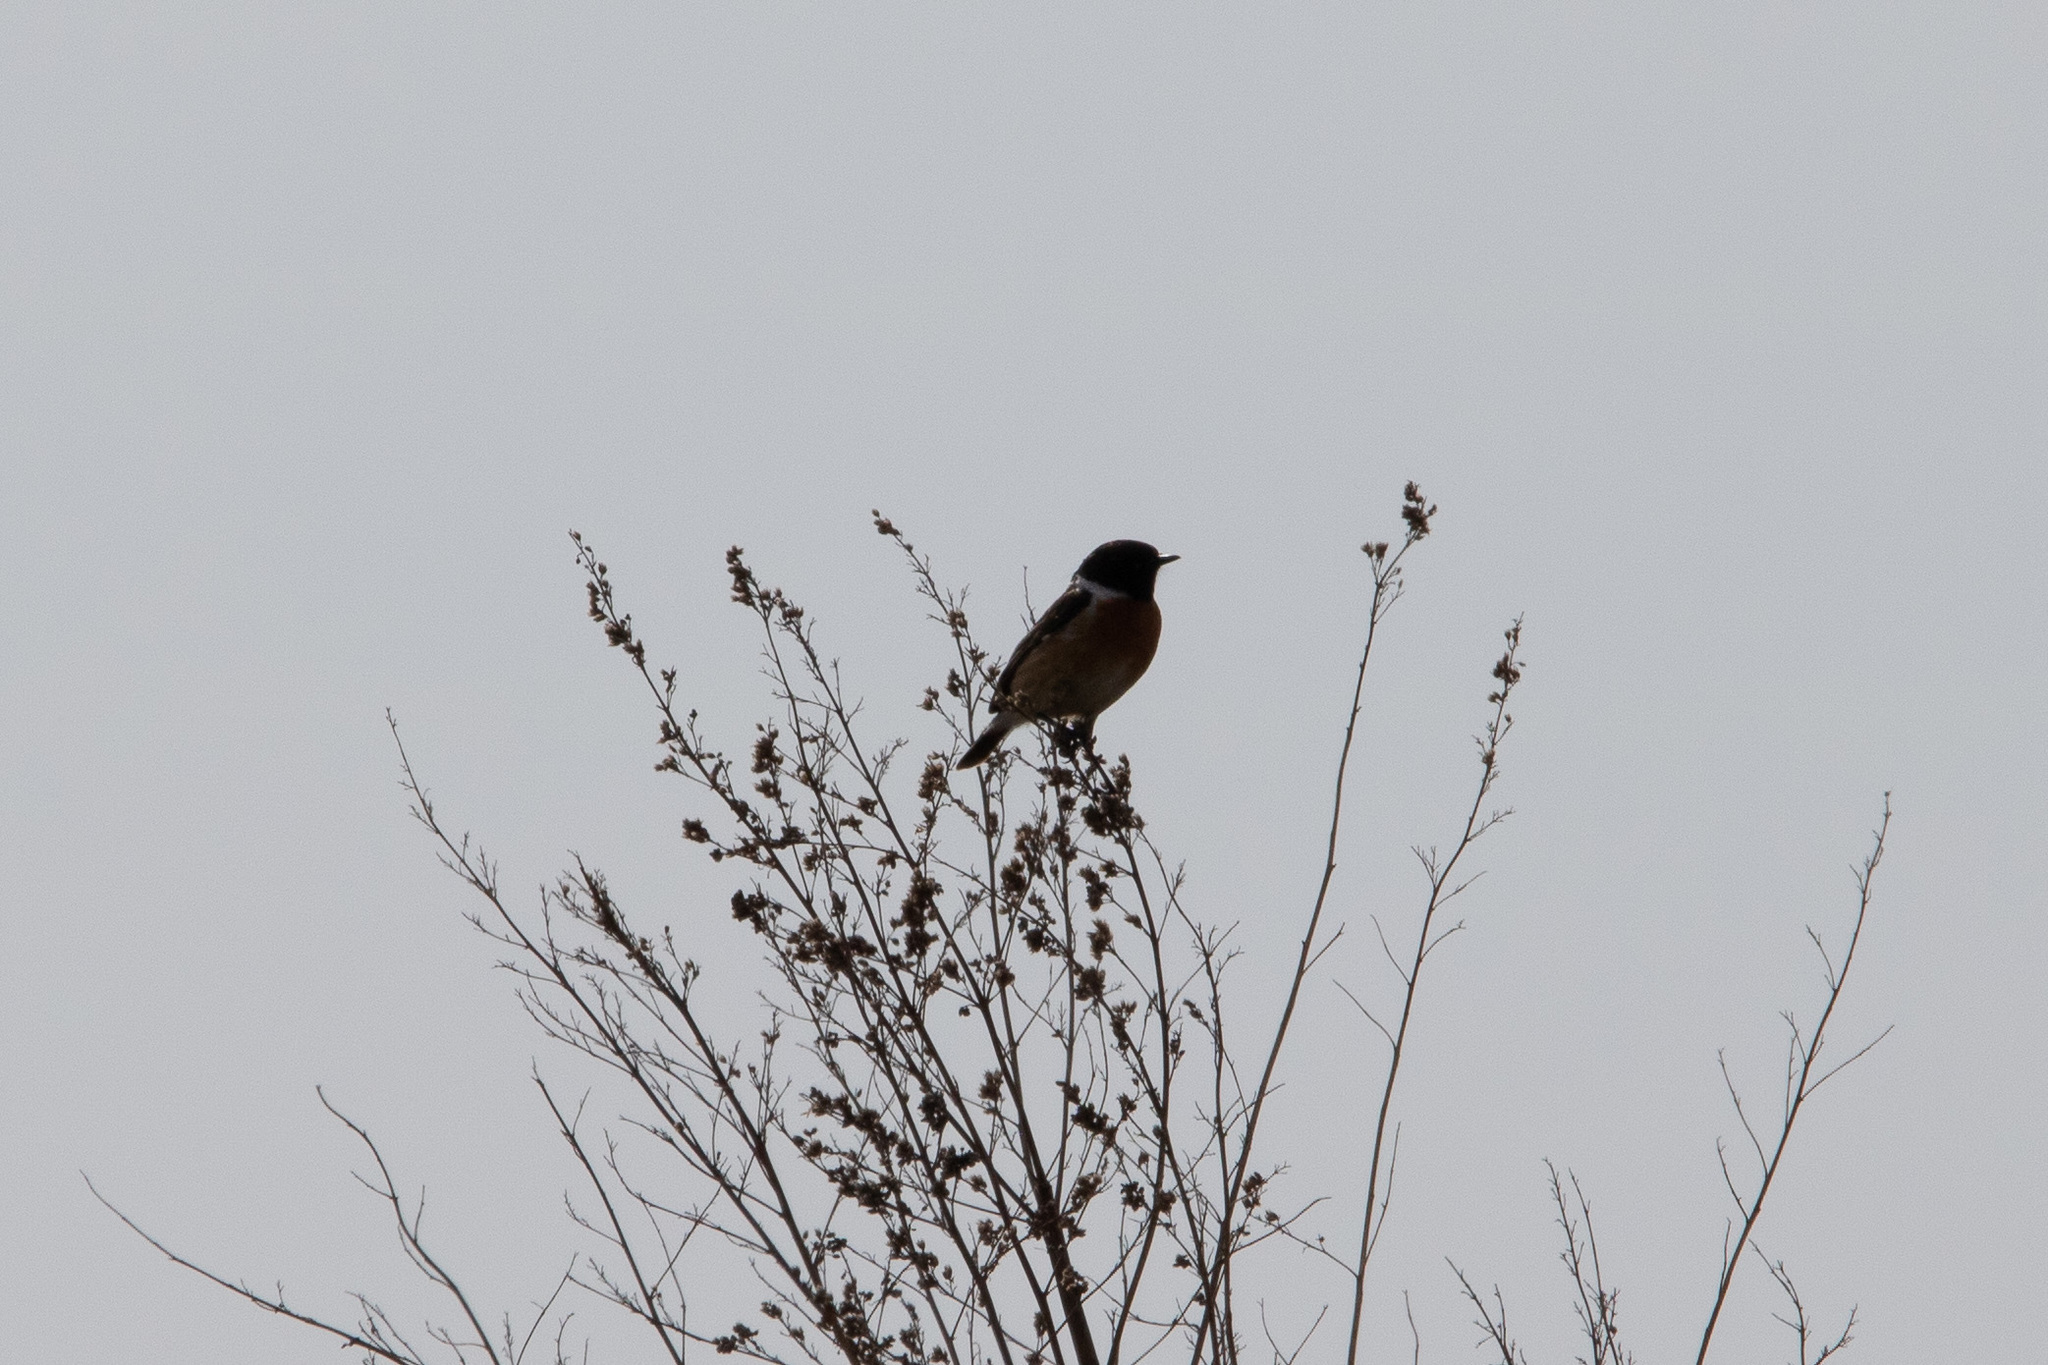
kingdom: Animalia
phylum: Chordata
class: Aves
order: Passeriformes
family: Muscicapidae
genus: Saxicola
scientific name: Saxicola rubicola
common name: European stonechat
